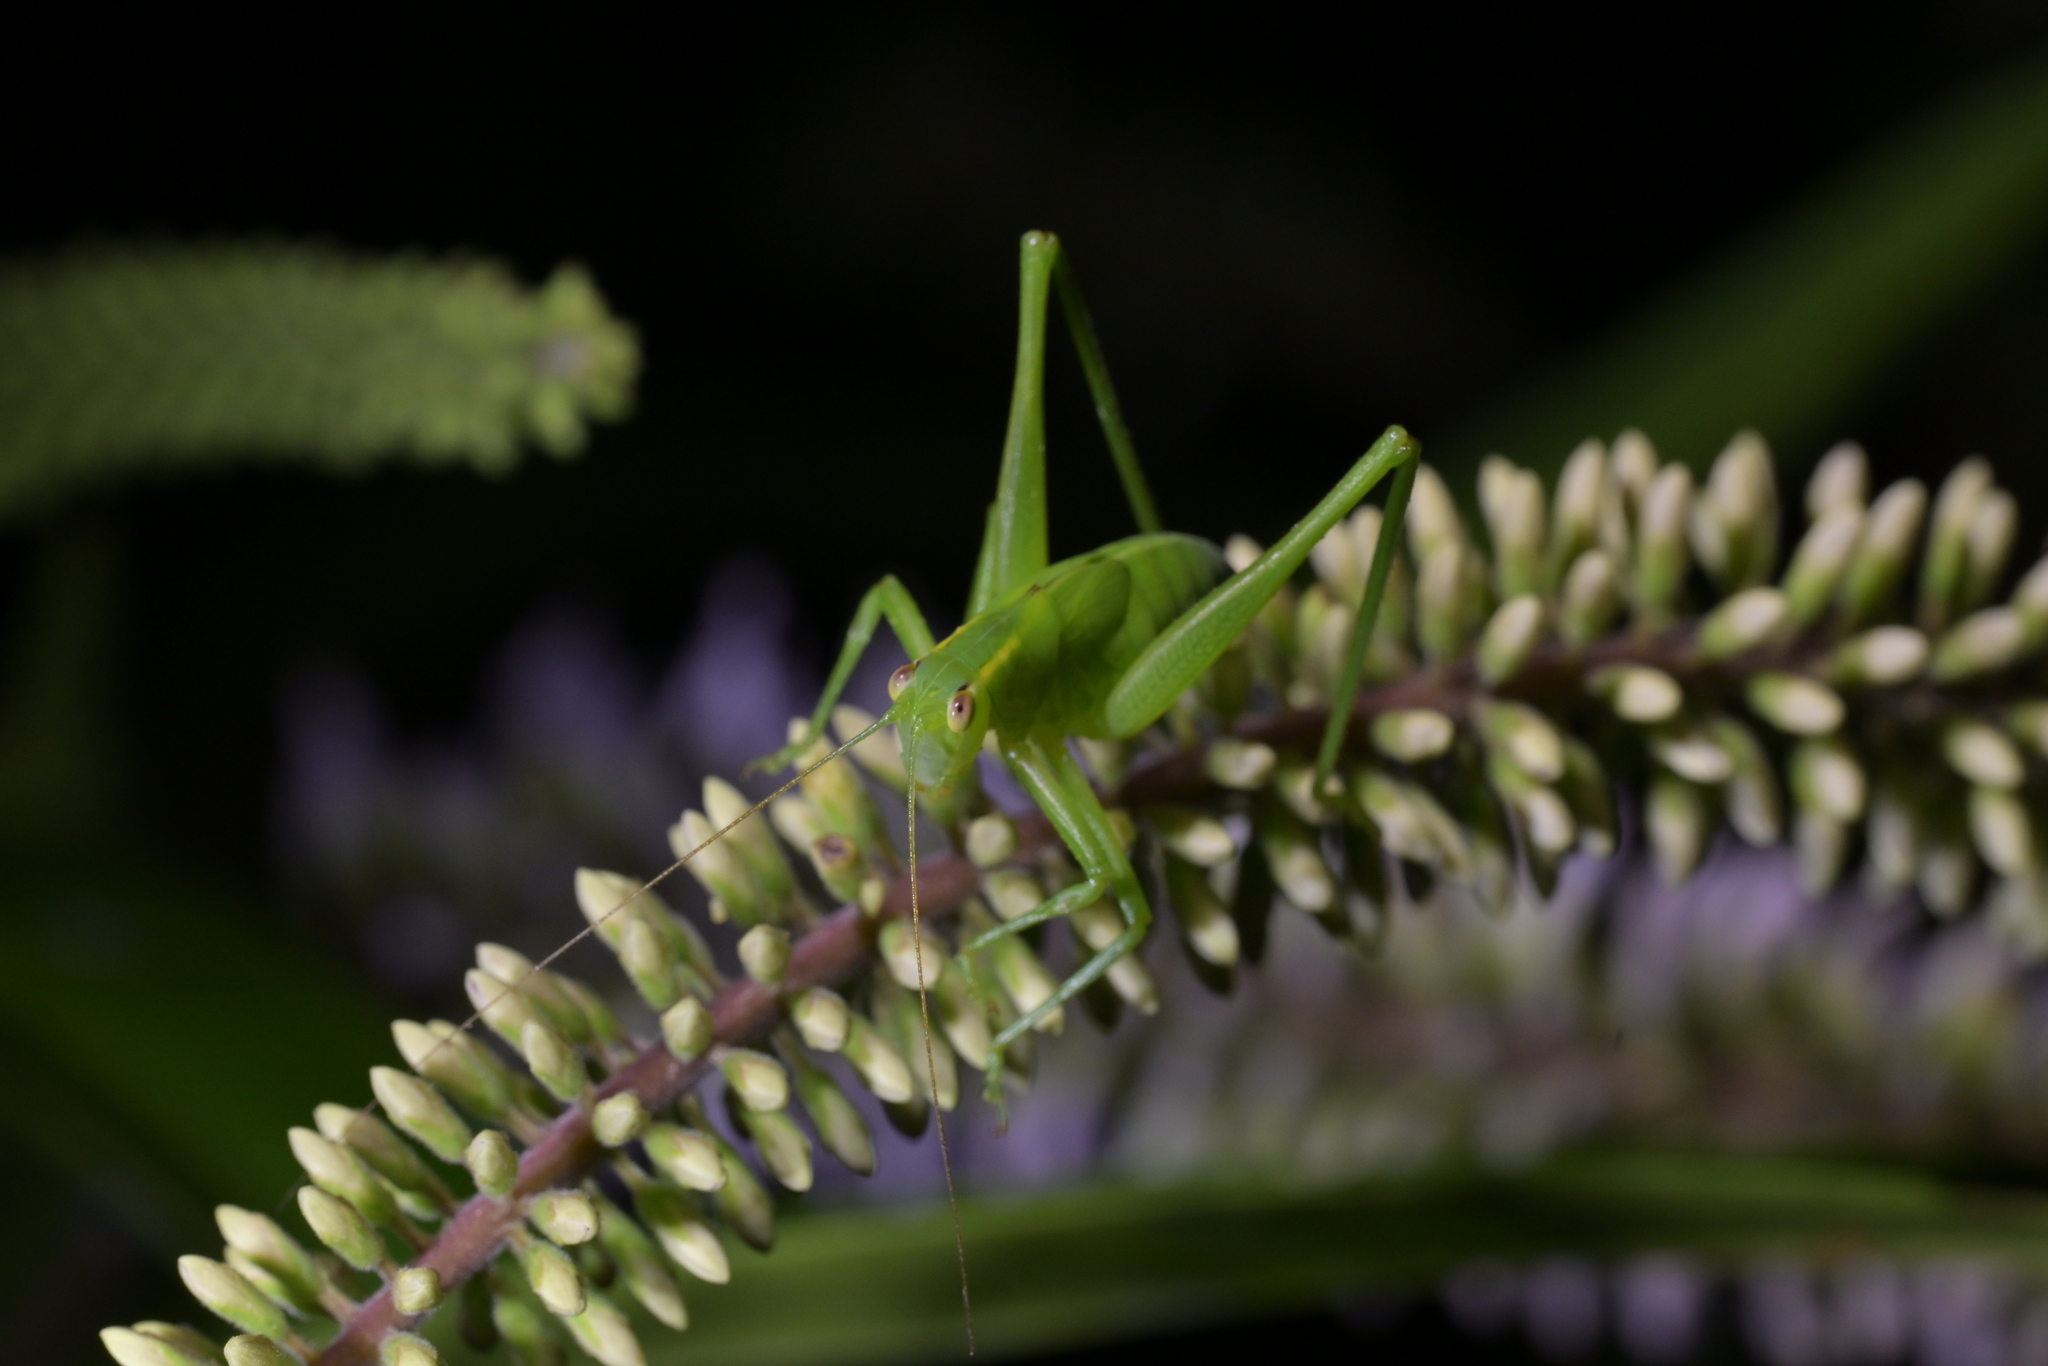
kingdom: Animalia
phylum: Arthropoda
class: Insecta
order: Orthoptera
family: Tettigoniidae
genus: Caedicia
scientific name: Caedicia simplex
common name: Common garden katydid
